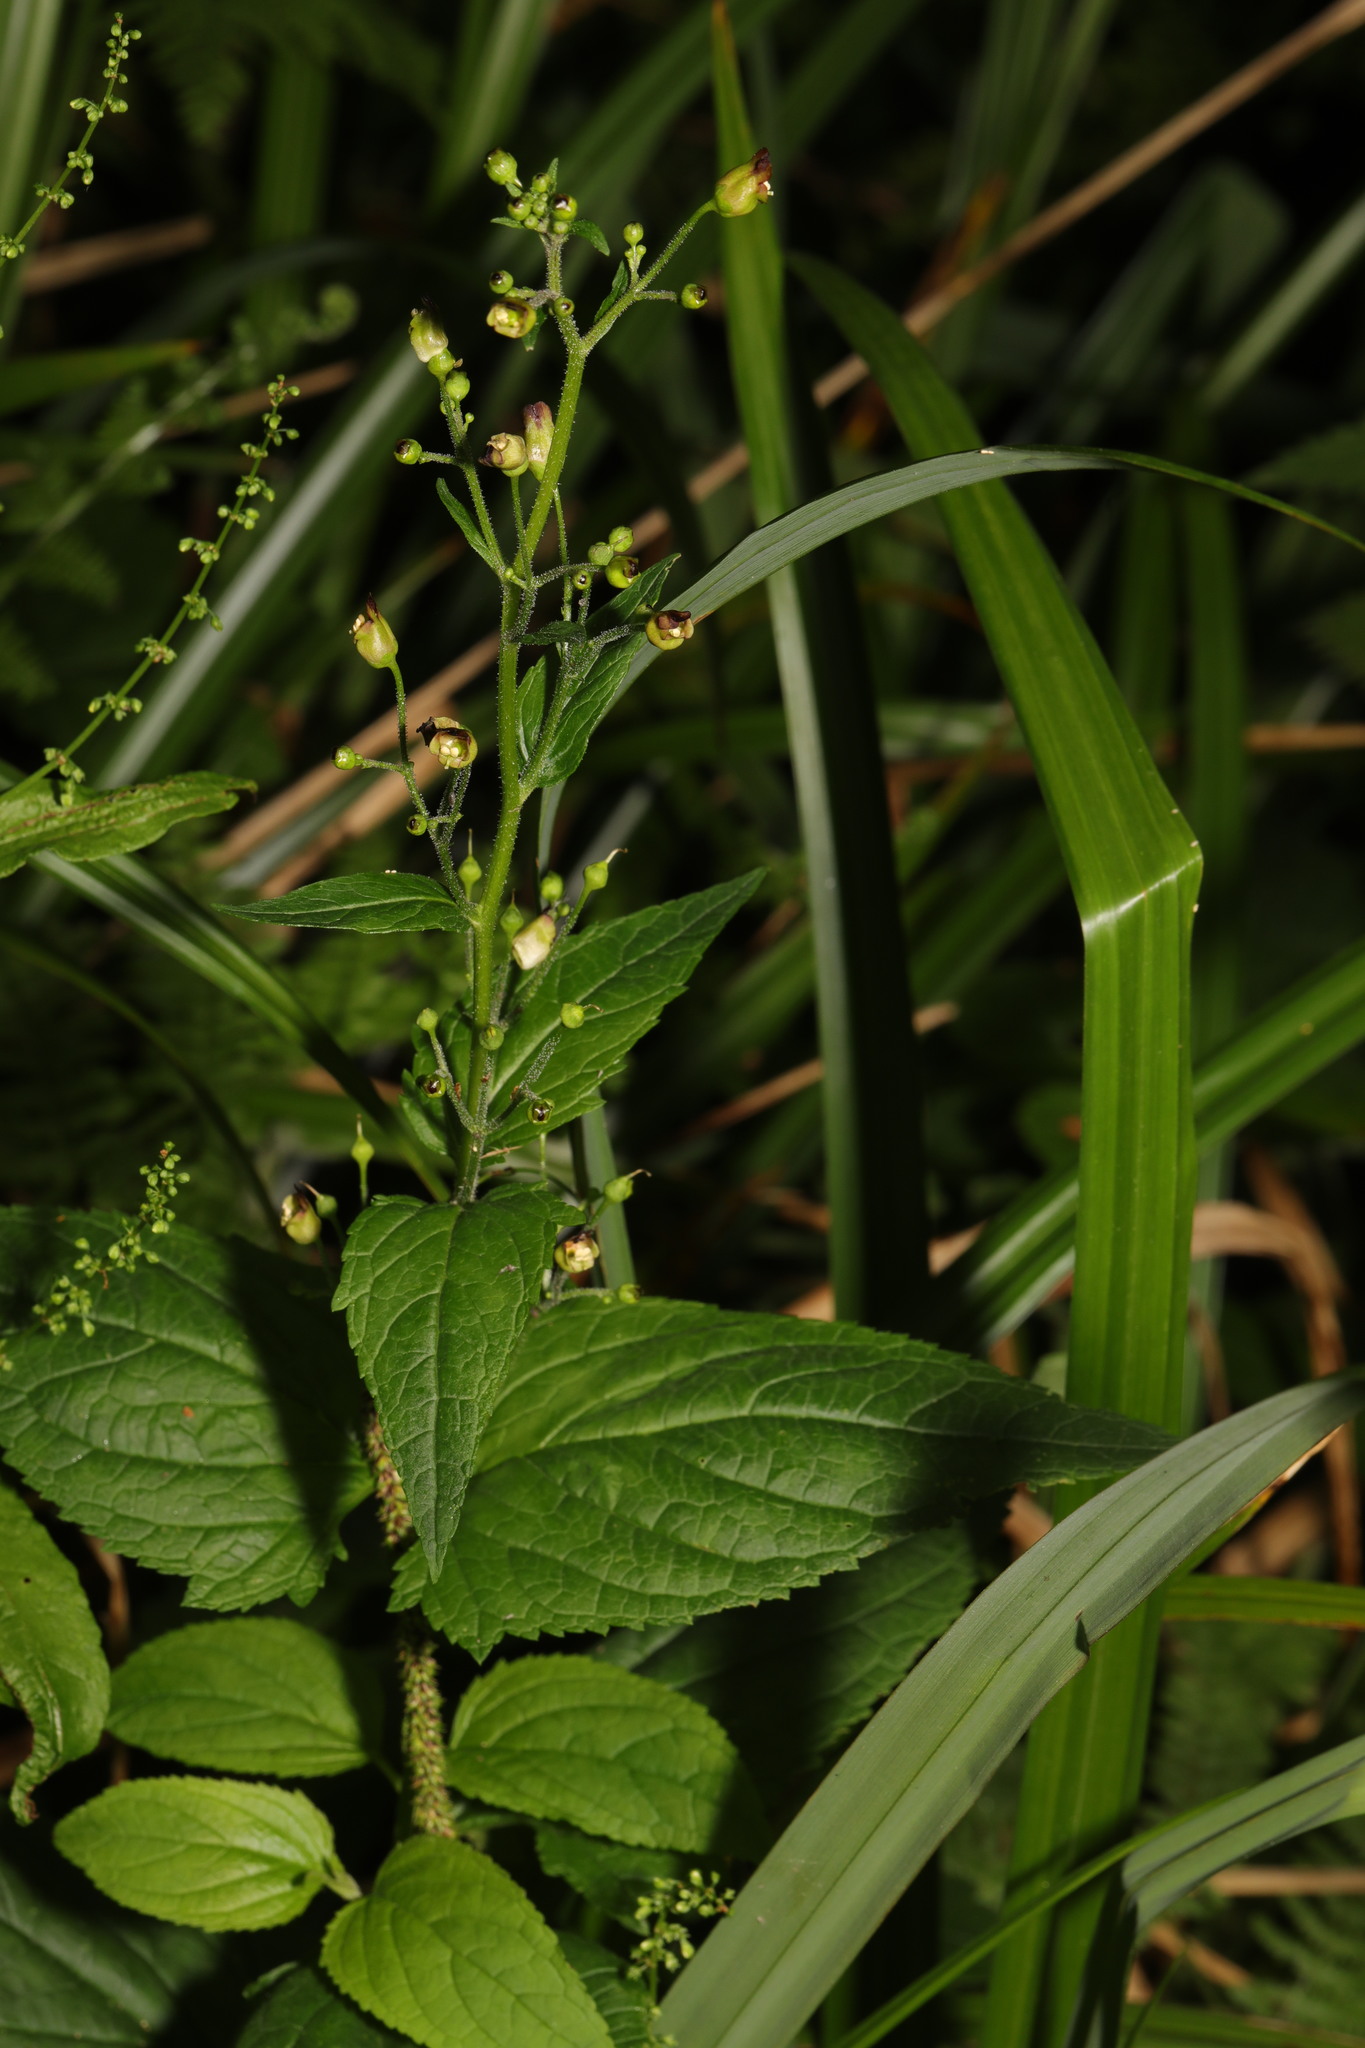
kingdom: Plantae
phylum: Tracheophyta
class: Magnoliopsida
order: Lamiales
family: Scrophulariaceae
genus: Scrophularia
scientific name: Scrophularia nodosa
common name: Common figwort
